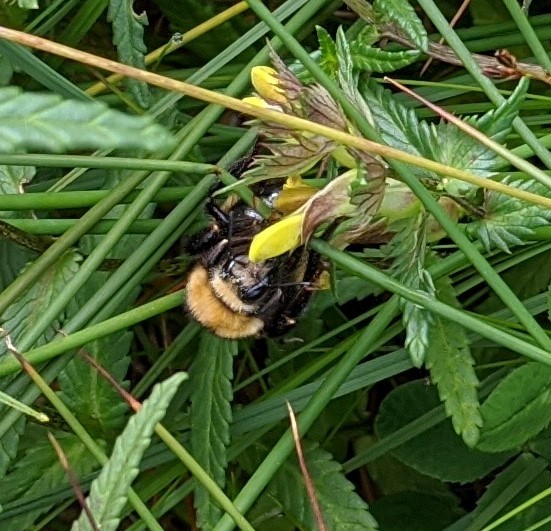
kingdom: Animalia
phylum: Arthropoda
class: Insecta
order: Hymenoptera
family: Apidae
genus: Bombus
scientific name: Bombus borealis
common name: Northern amber bumble bee
